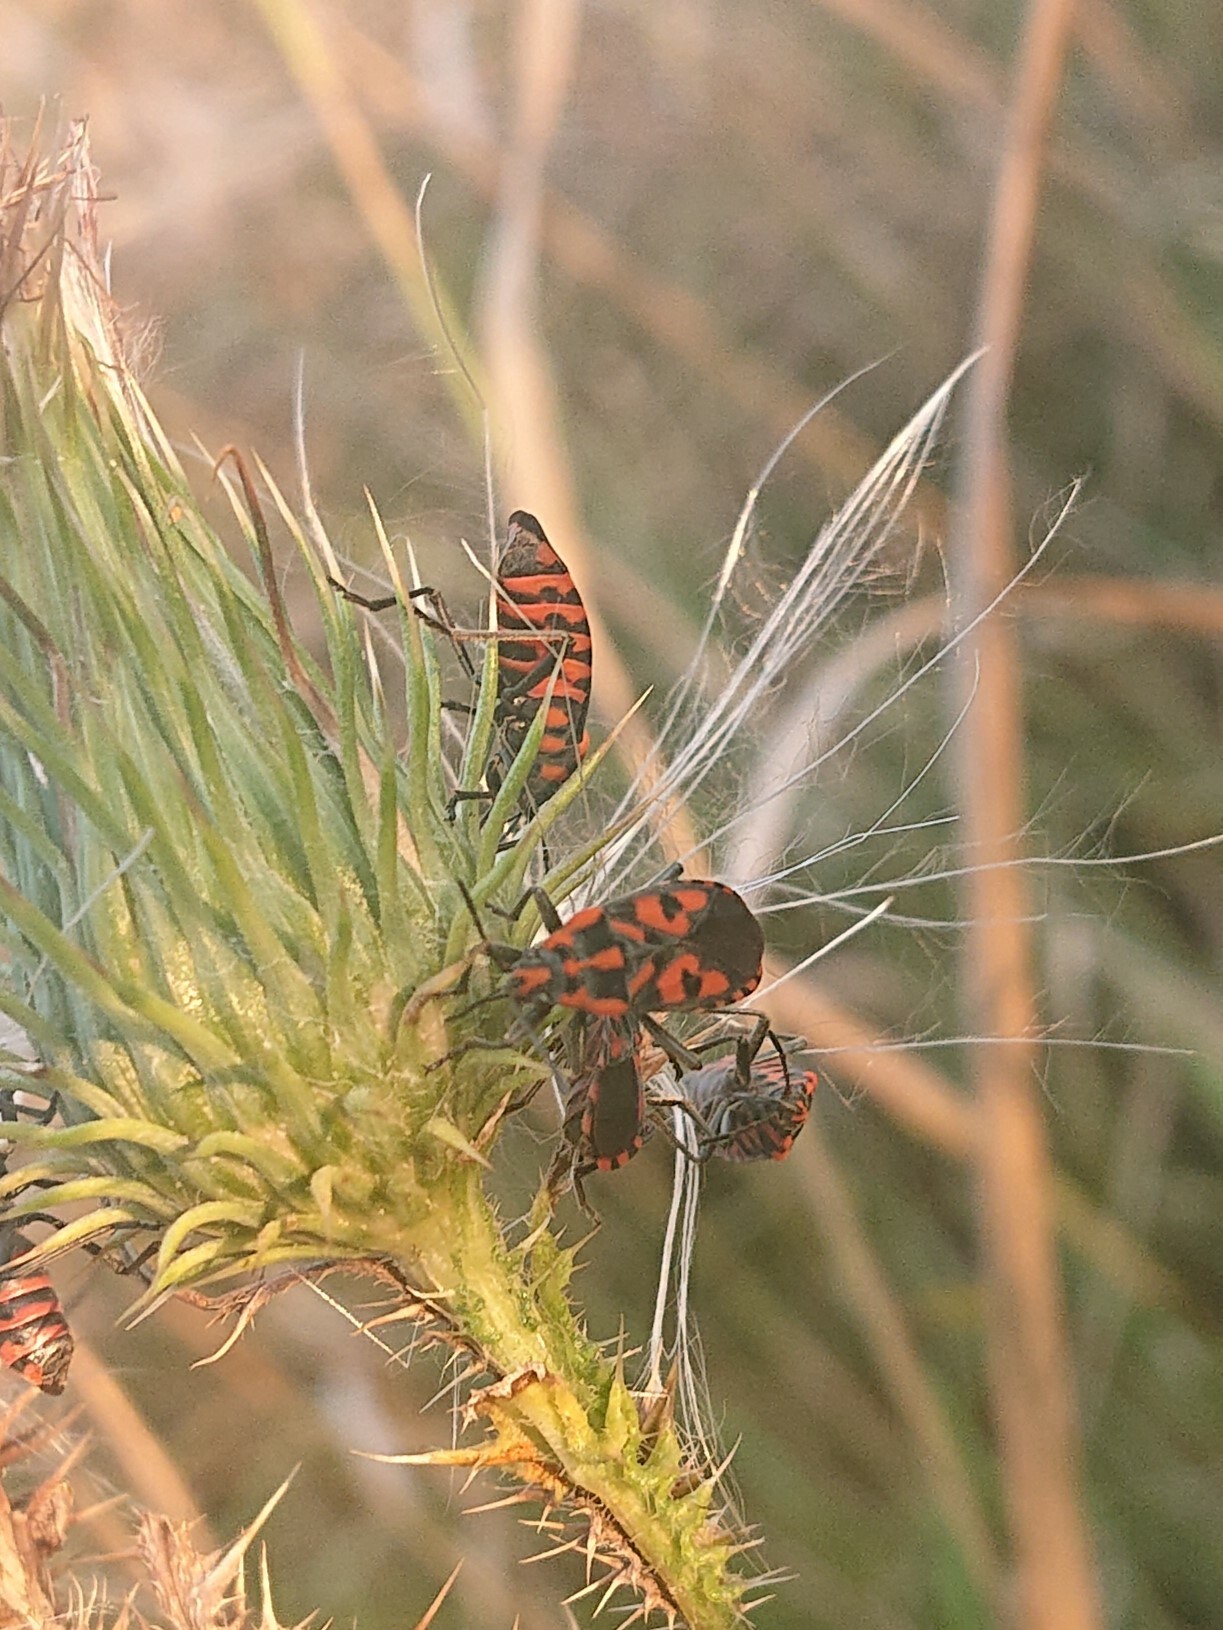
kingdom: Animalia
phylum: Arthropoda
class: Insecta
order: Hemiptera
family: Lygaeidae
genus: Spilostethus
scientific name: Spilostethus saxatilis
